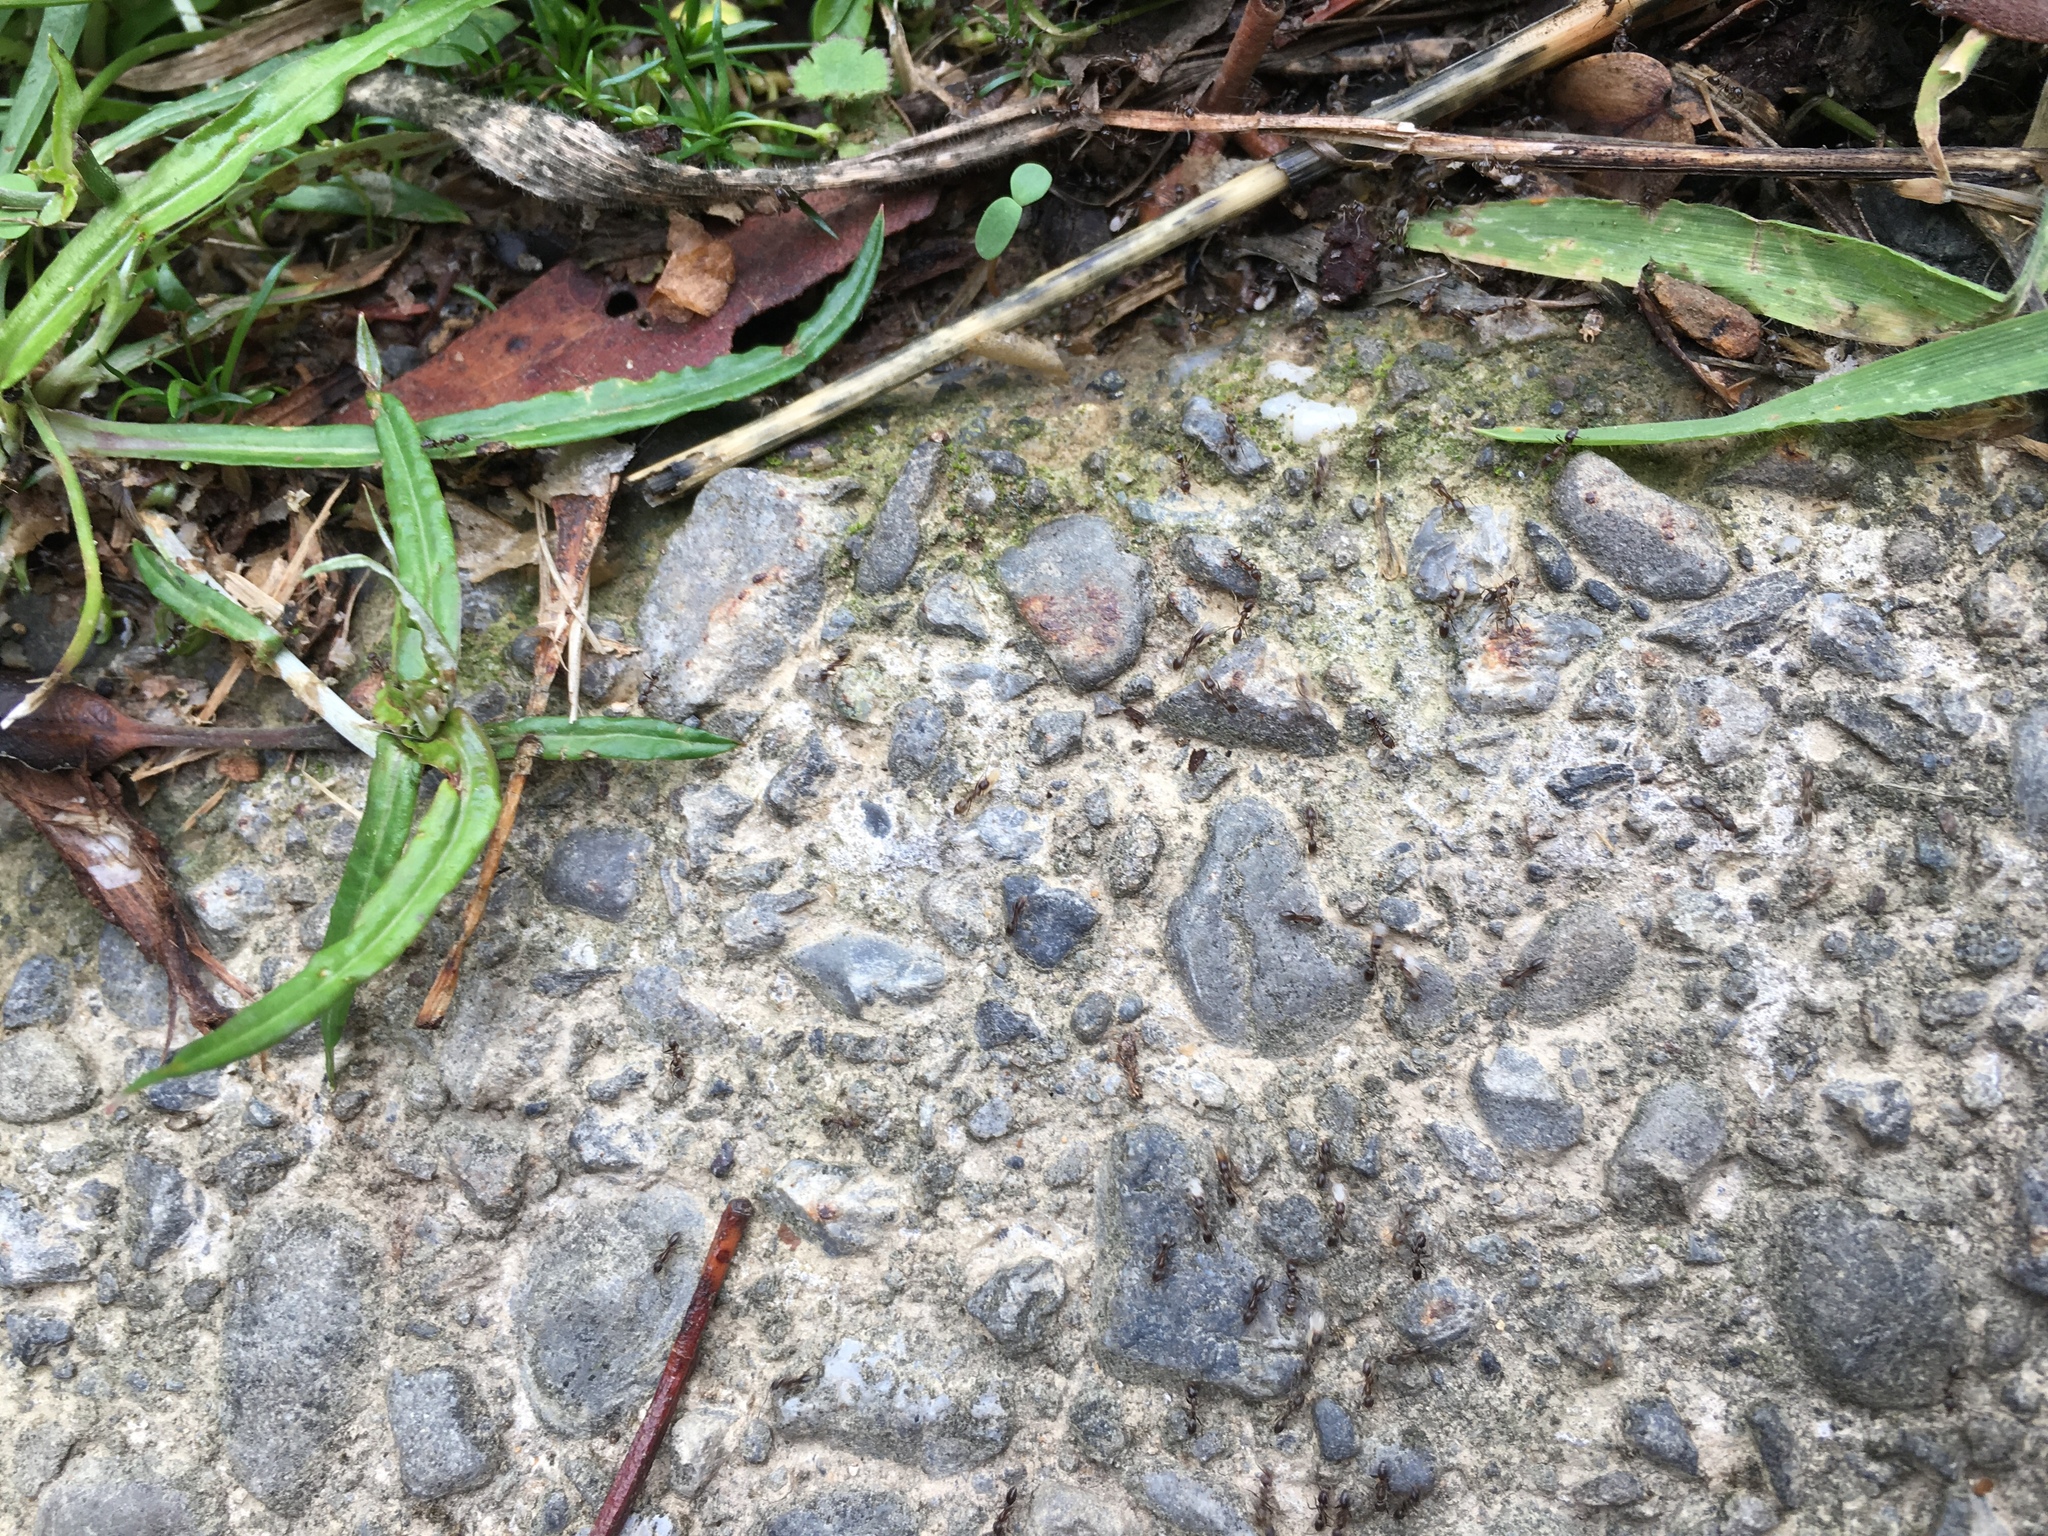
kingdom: Animalia
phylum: Arthropoda
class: Insecta
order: Hymenoptera
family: Formicidae
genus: Linepithema
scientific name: Linepithema humile
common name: Argentine ant
